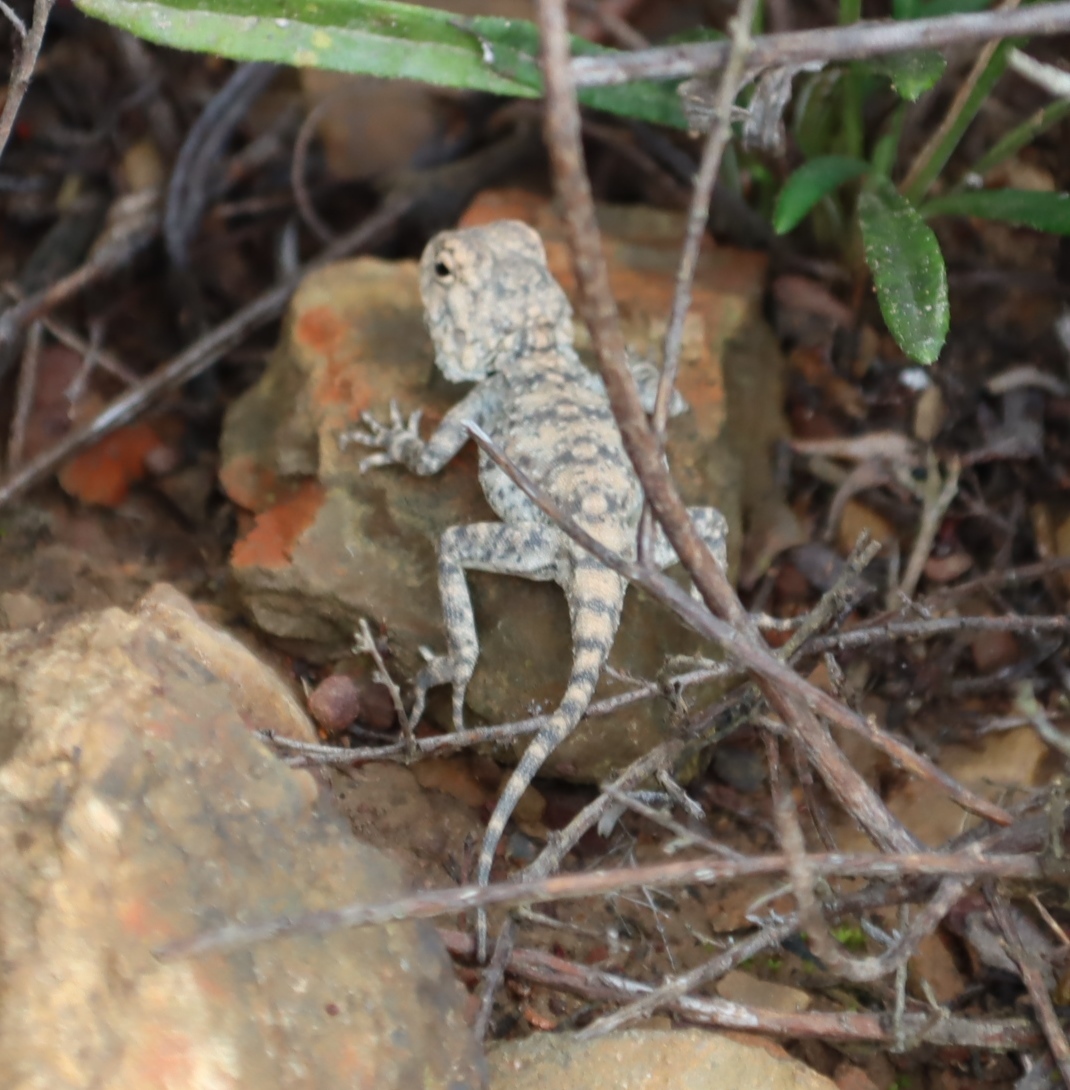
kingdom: Animalia
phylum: Chordata
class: Squamata
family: Agamidae
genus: Agama
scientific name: Agama atra
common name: Southern african rock agama
